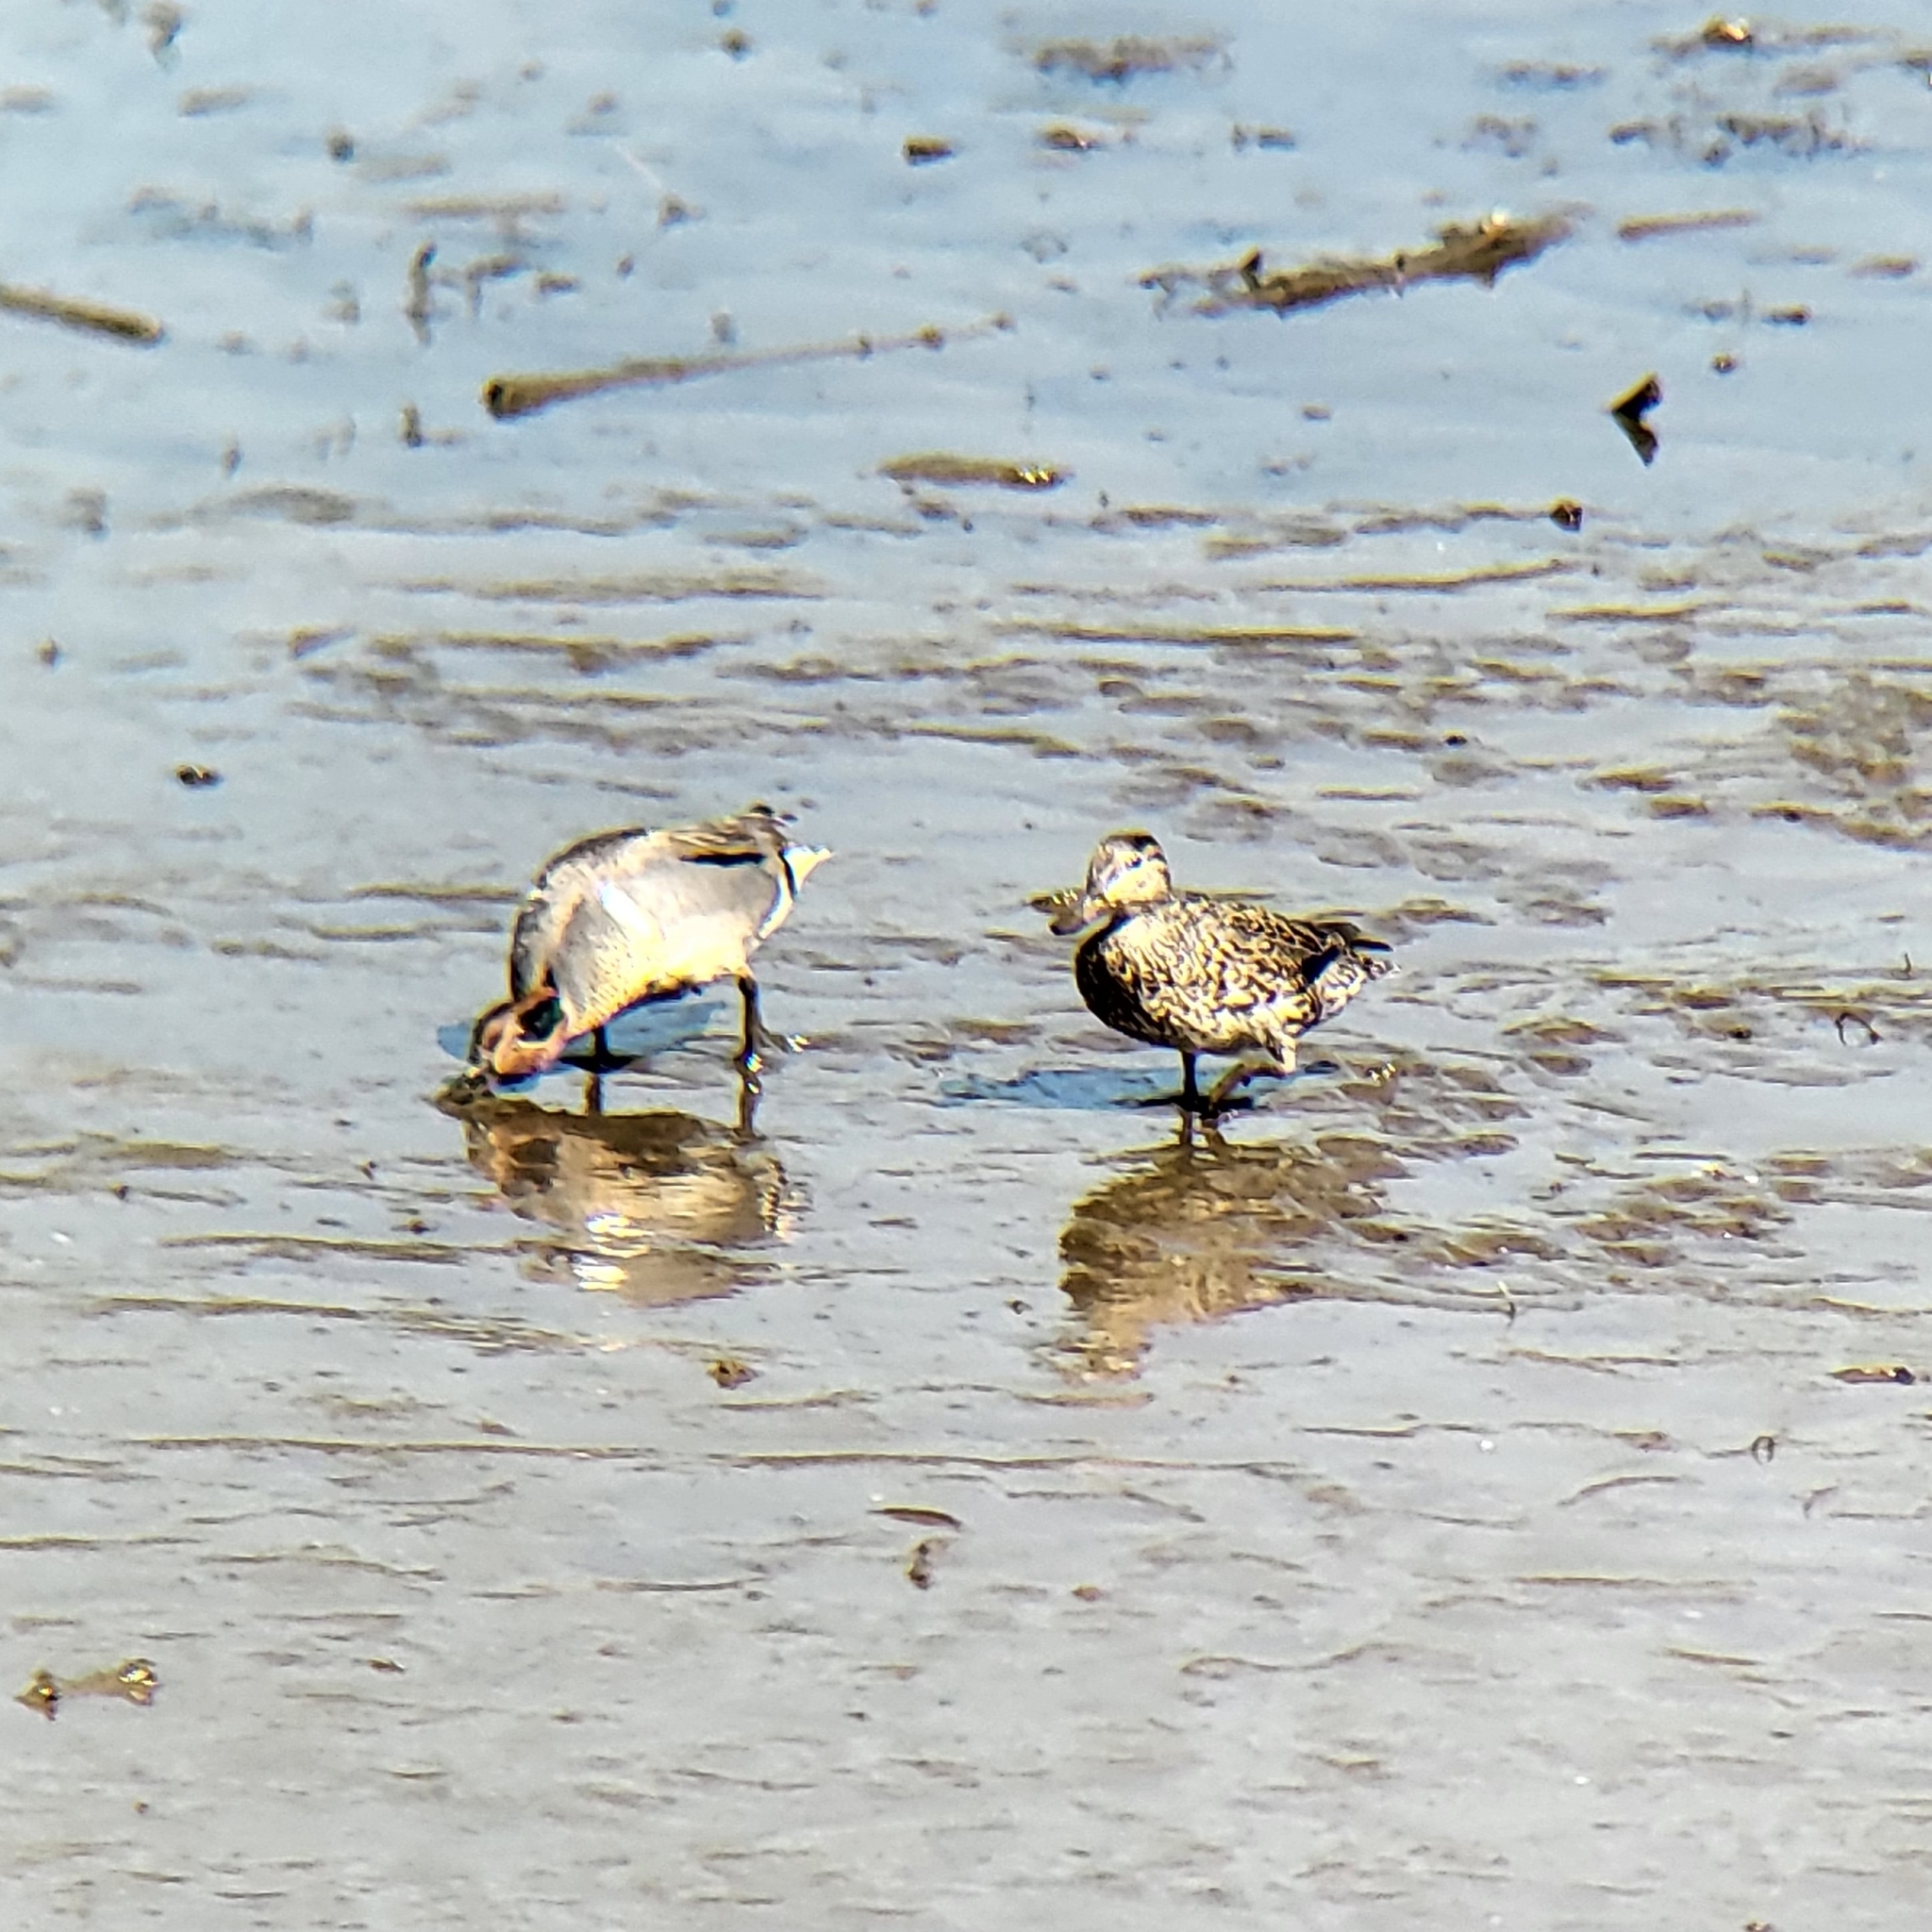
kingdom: Animalia
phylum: Chordata
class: Aves
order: Anseriformes
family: Anatidae
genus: Anas
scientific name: Anas crecca
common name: Eurasian teal
